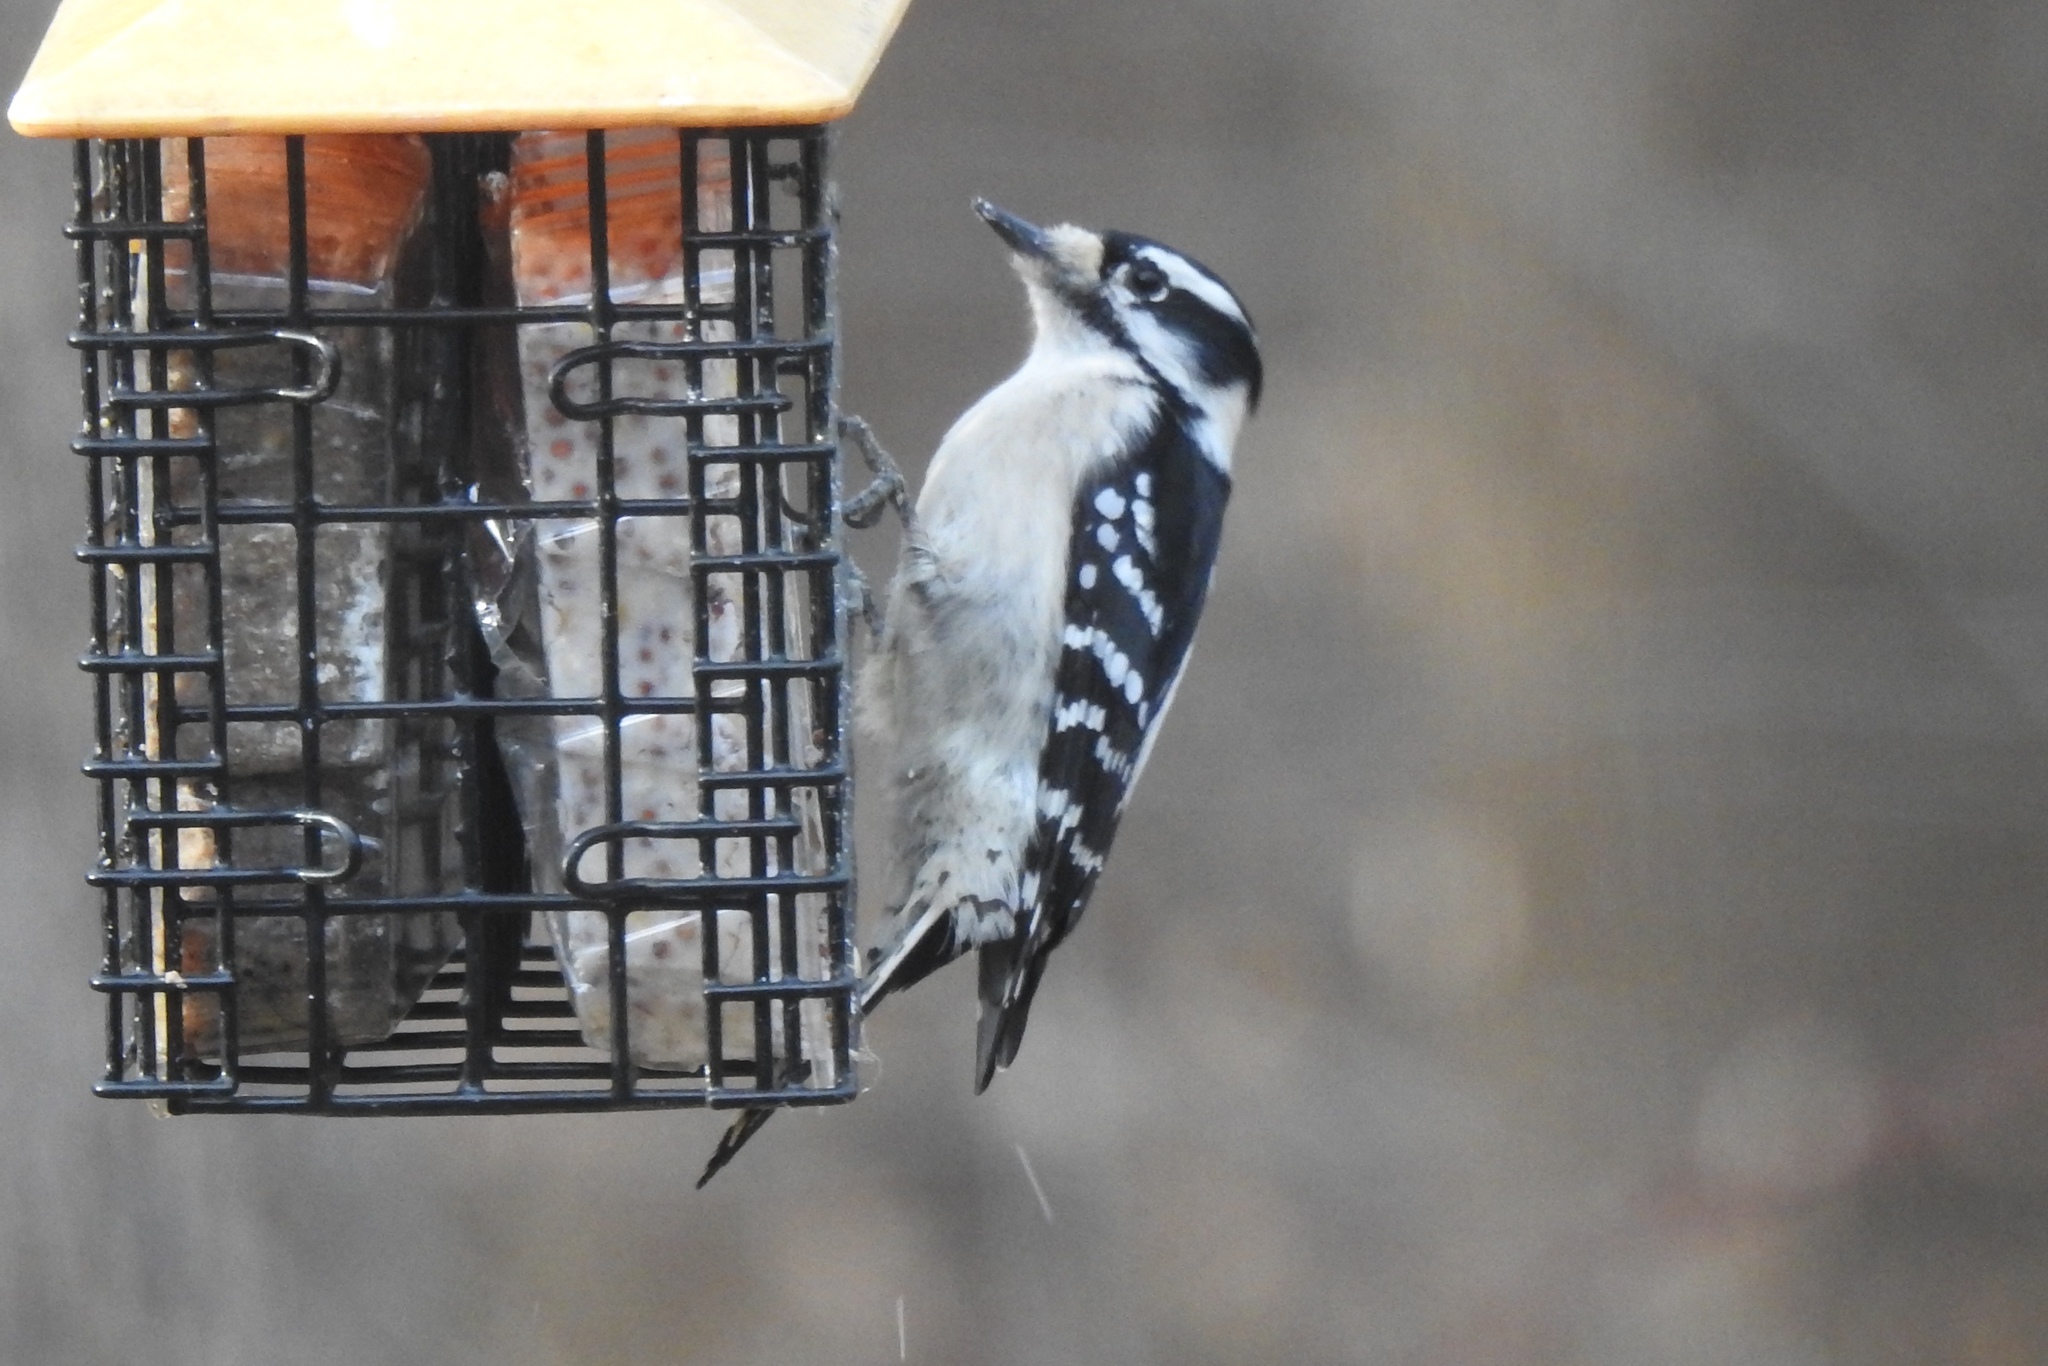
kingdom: Animalia
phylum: Chordata
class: Aves
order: Piciformes
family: Picidae
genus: Dryobates
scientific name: Dryobates pubescens
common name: Downy woodpecker
